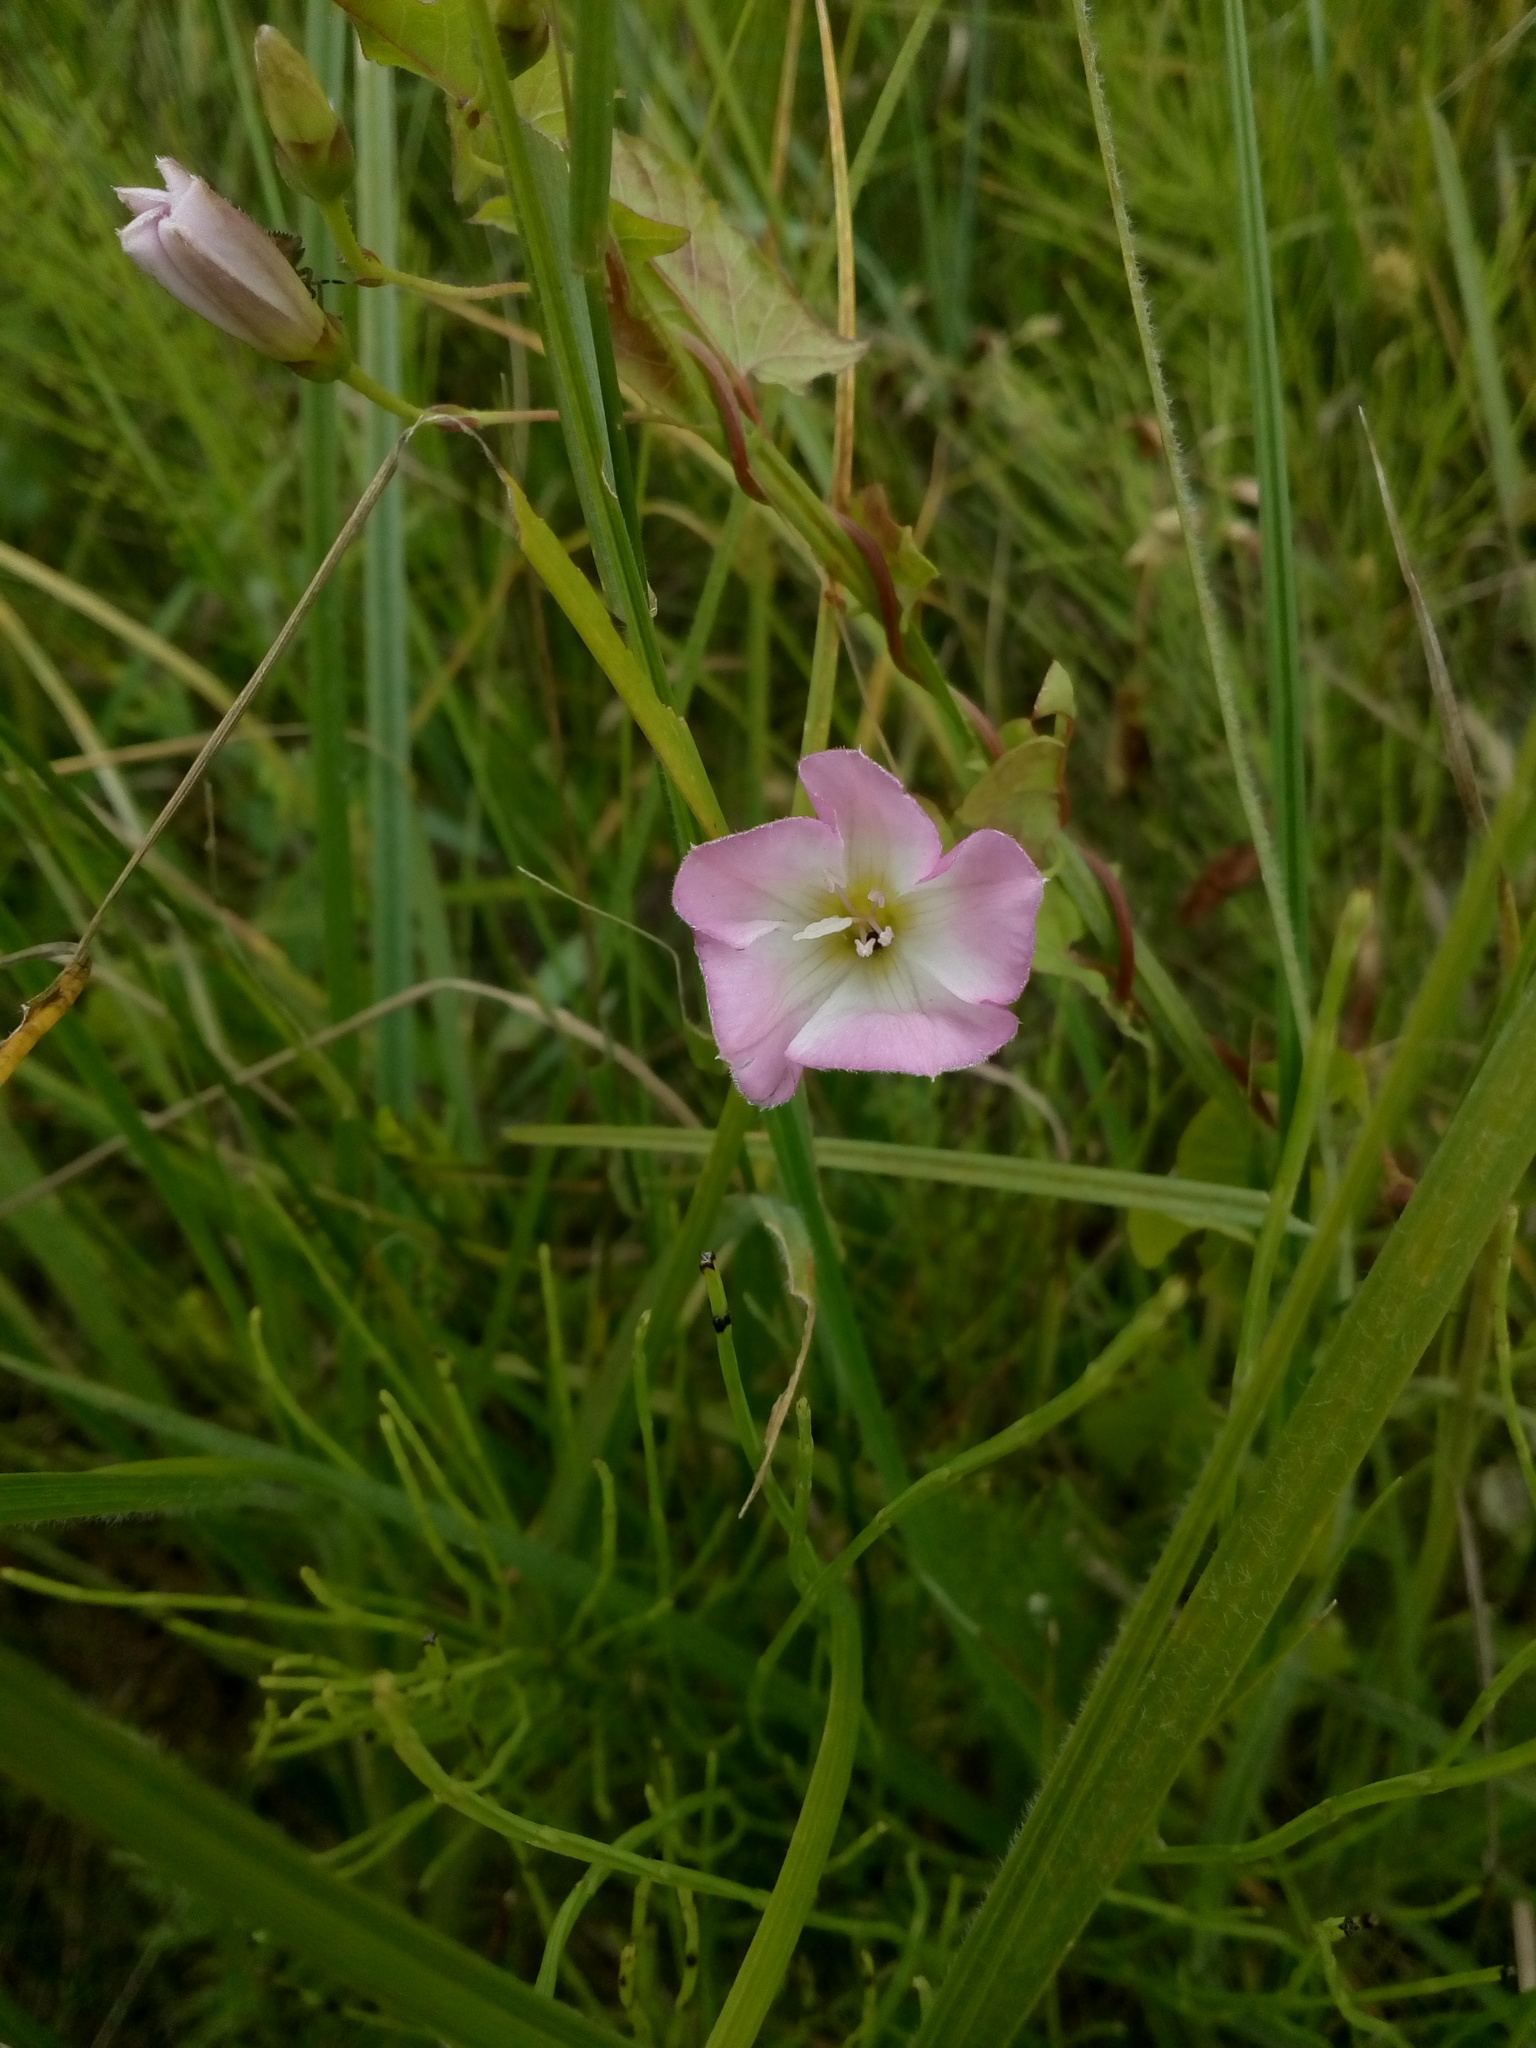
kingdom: Plantae
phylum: Tracheophyta
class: Magnoliopsida
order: Solanales
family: Convolvulaceae
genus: Convolvulus
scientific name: Convolvulus arvensis
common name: Field bindweed
